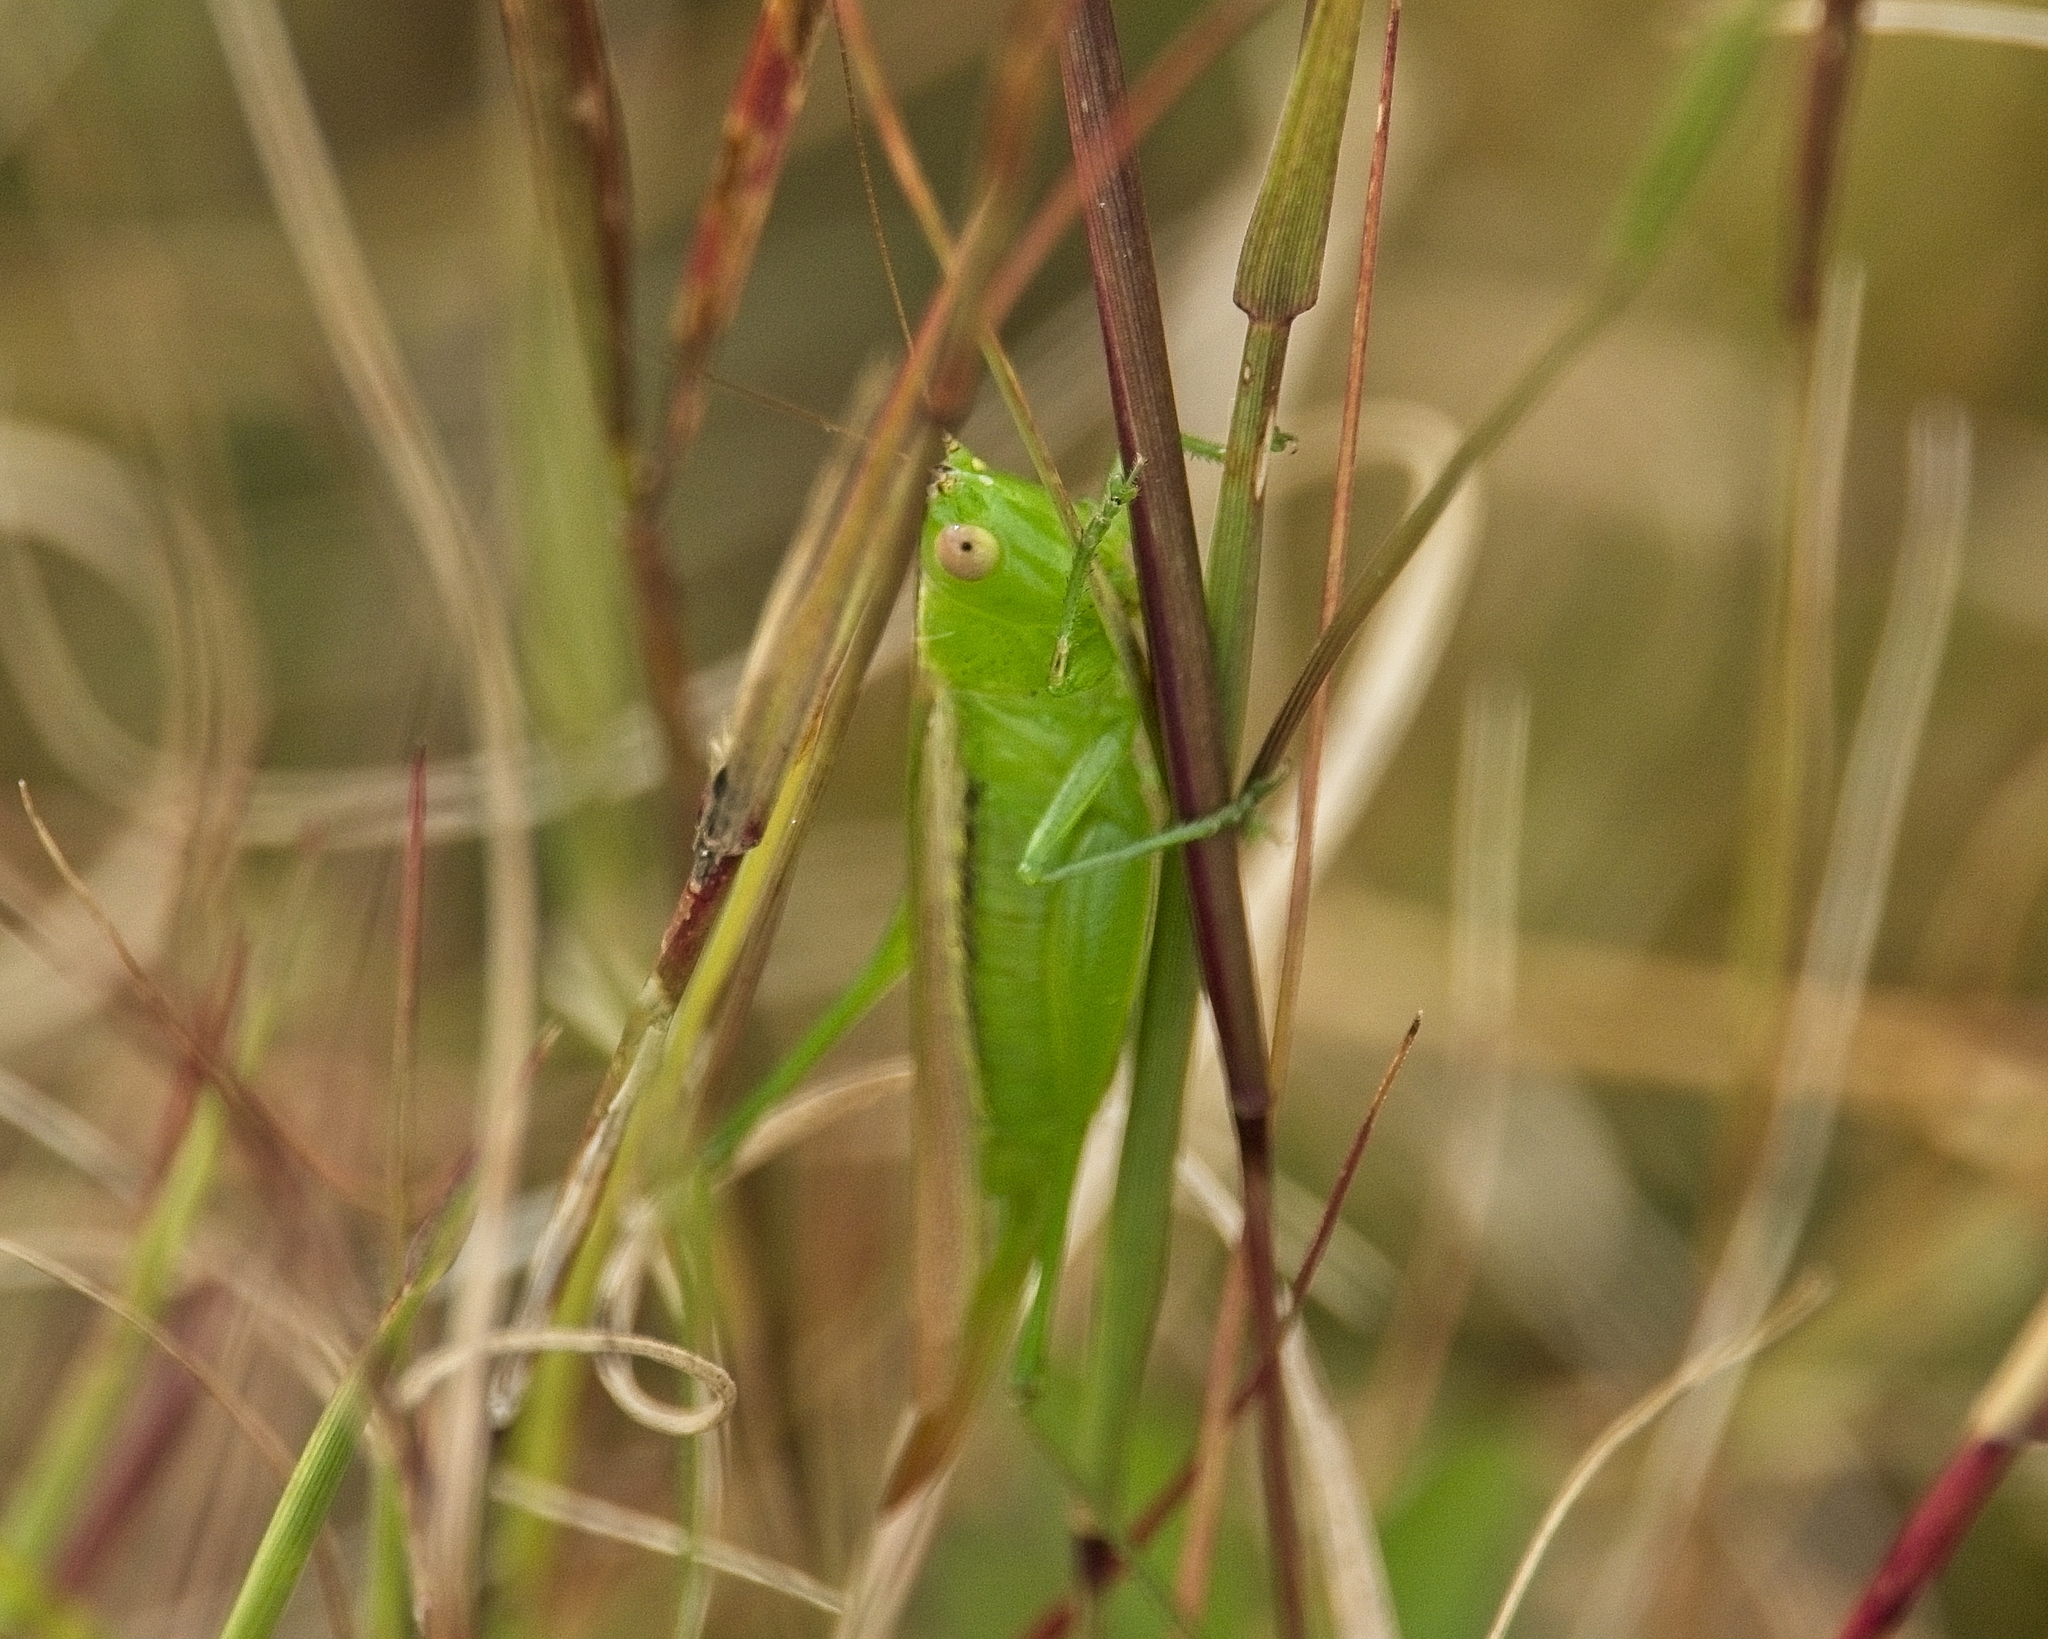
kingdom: Animalia
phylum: Arthropoda
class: Insecta
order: Orthoptera
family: Tettigoniidae
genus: Conocephalus
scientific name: Conocephalus fasciatus
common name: Slender meadow katydid
